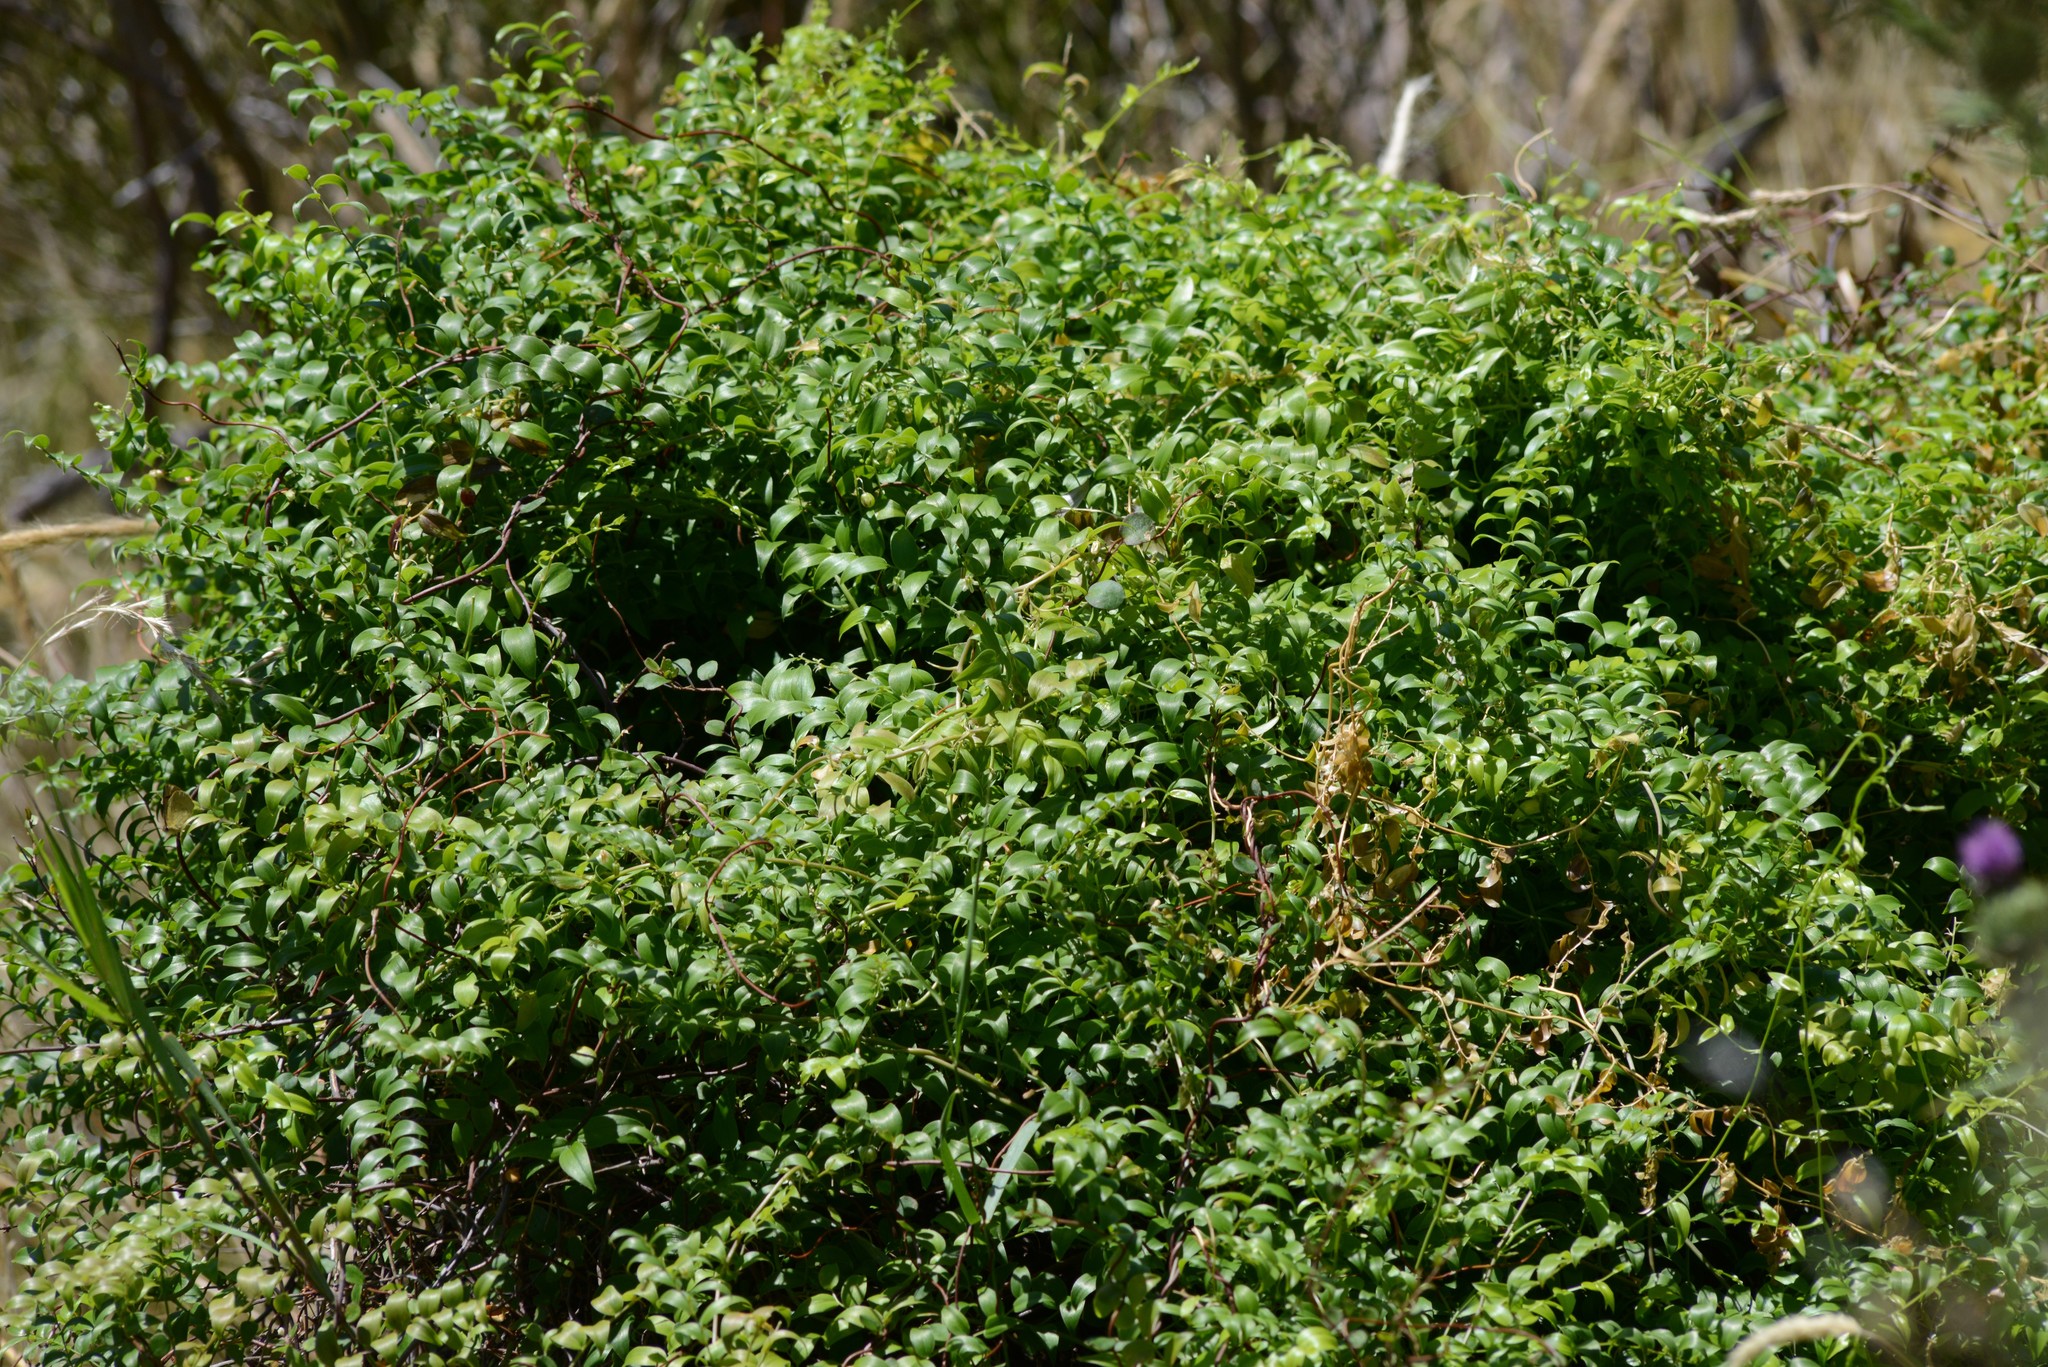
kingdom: Plantae
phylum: Tracheophyta
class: Liliopsida
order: Asparagales
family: Asparagaceae
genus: Asparagus
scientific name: Asparagus asparagoides
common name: African asparagus fern
